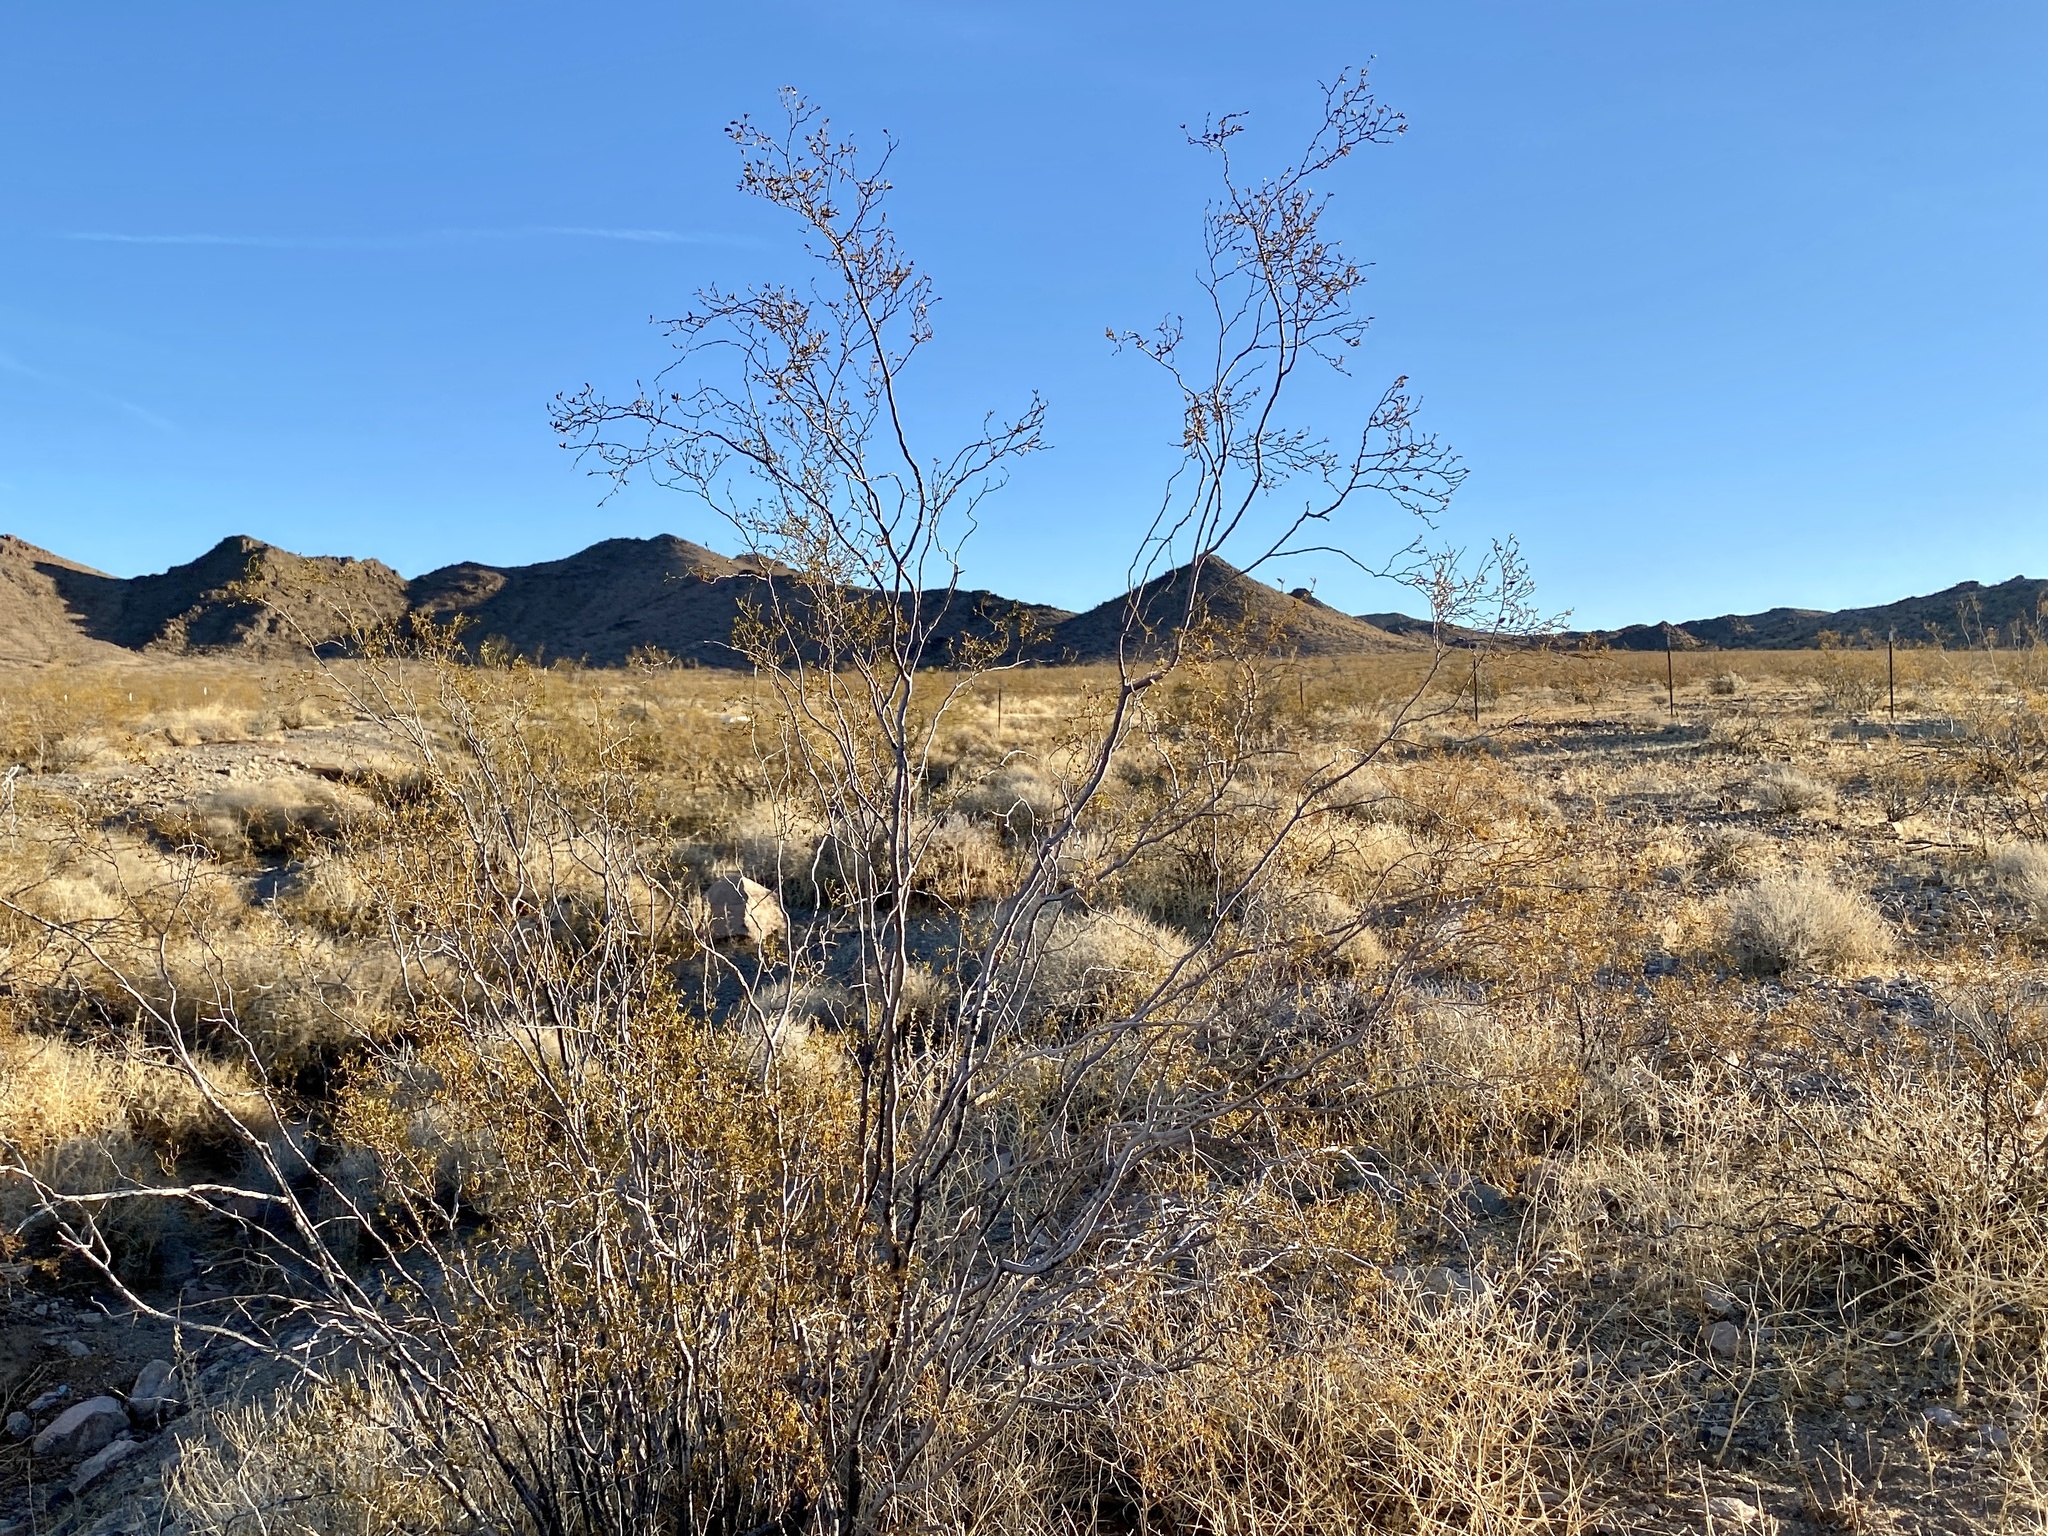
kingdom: Plantae
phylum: Tracheophyta
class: Magnoliopsida
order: Zygophyllales
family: Zygophyllaceae
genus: Larrea
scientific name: Larrea tridentata
